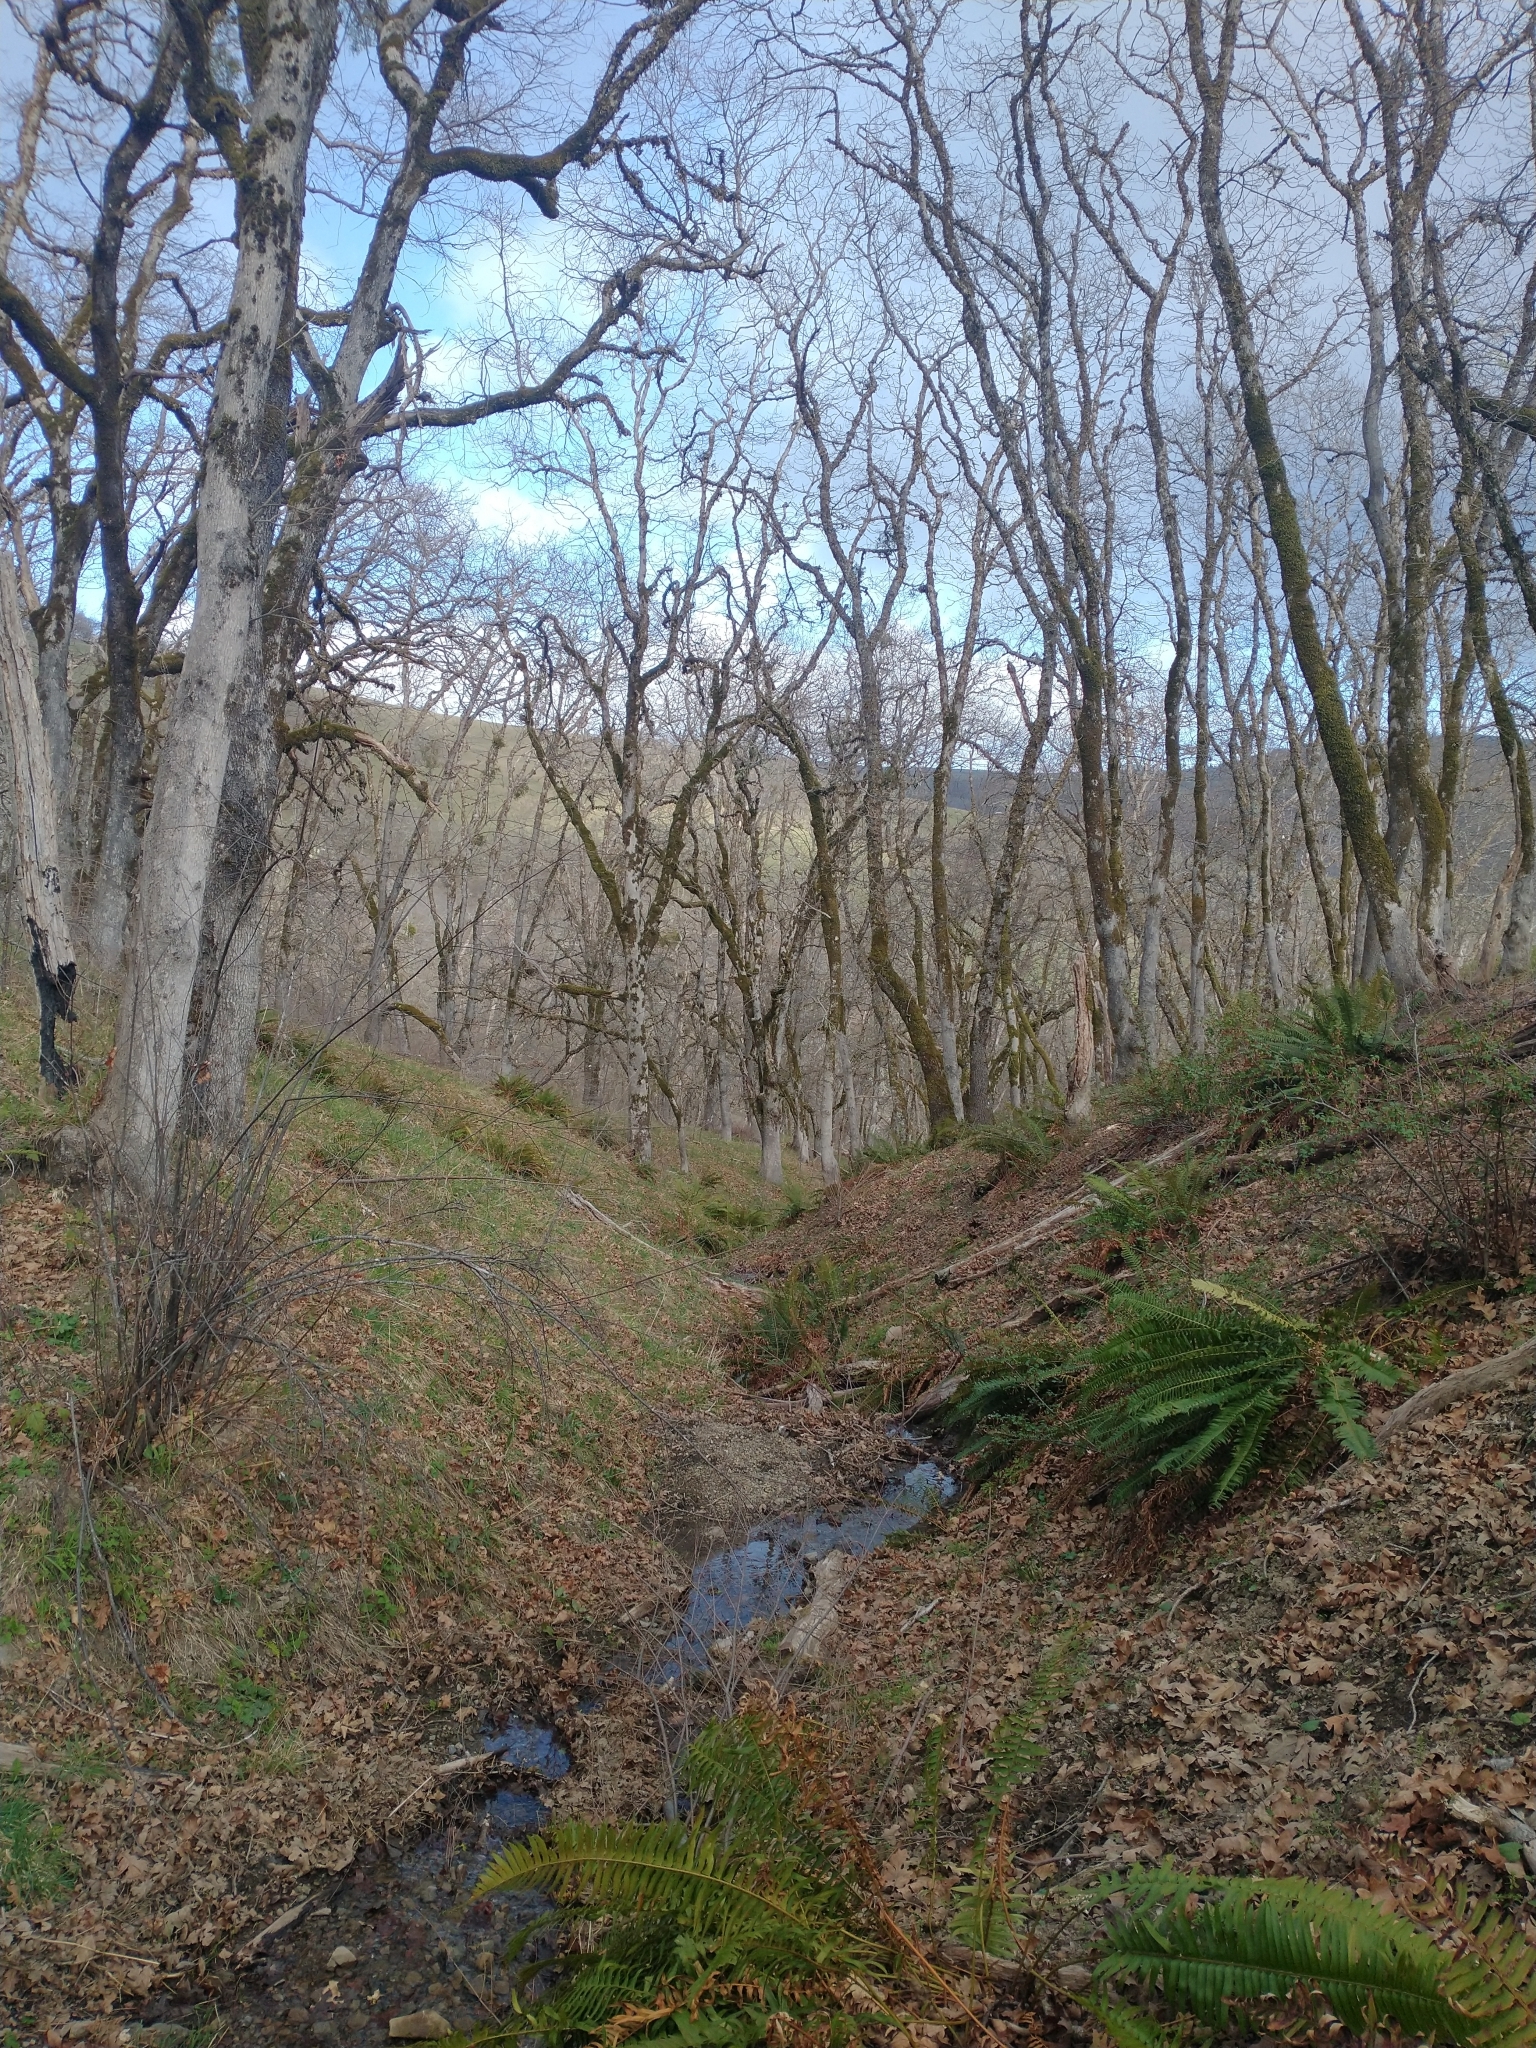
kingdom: Plantae
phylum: Tracheophyta
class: Polypodiopsida
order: Polypodiales
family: Dryopteridaceae
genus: Polystichum
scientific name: Polystichum munitum
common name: Western sword-fern
